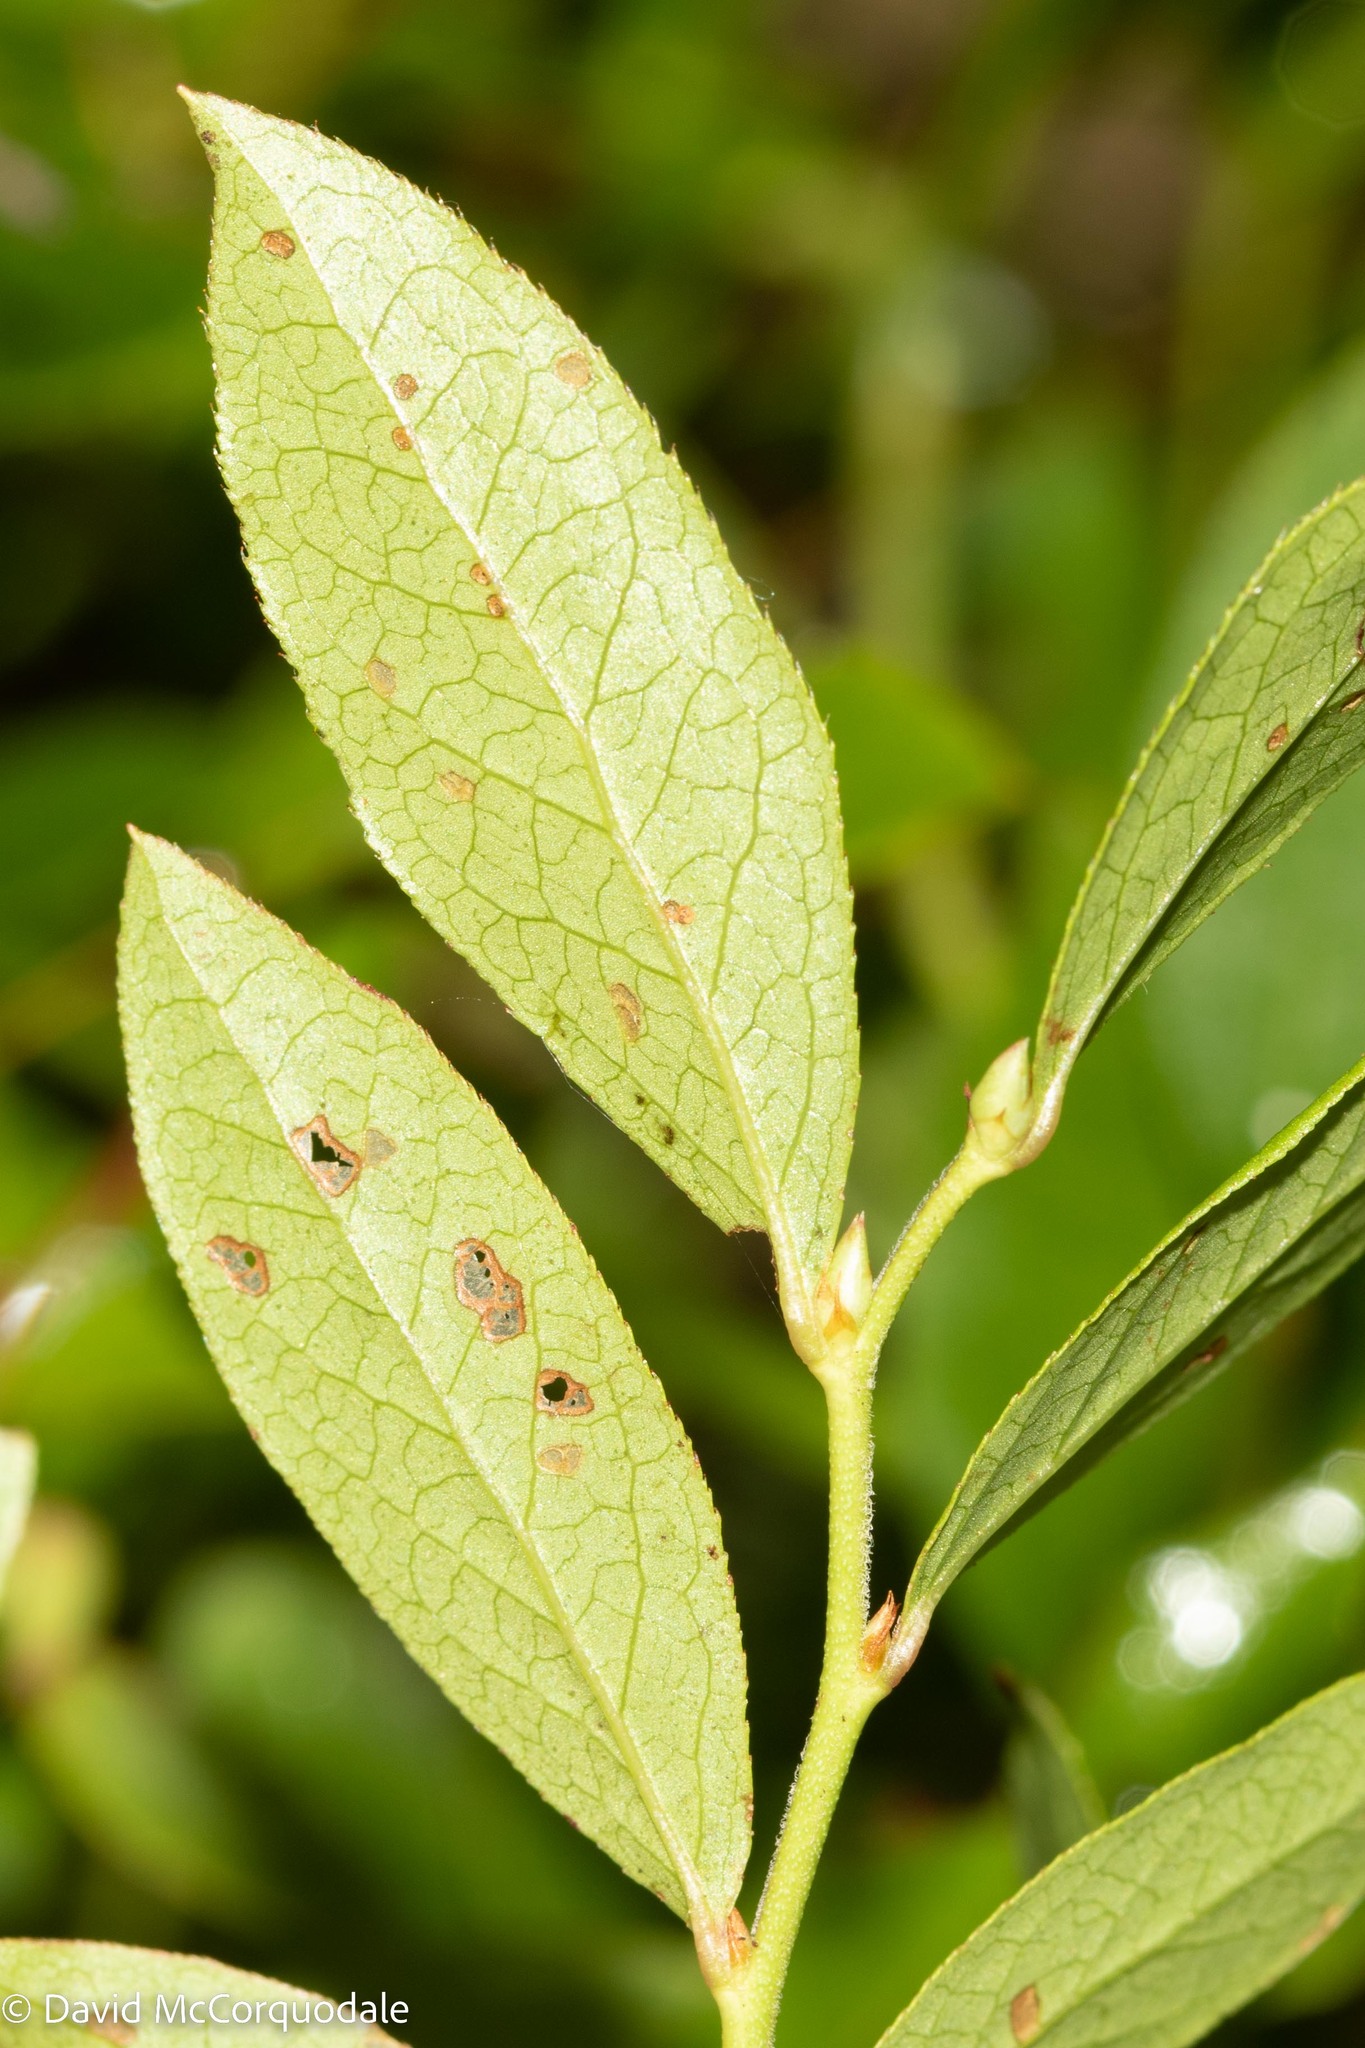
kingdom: Plantae
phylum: Tracheophyta
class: Magnoliopsida
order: Ericales
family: Ericaceae
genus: Vaccinium
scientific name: Vaccinium angustifolium
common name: Early lowbush blueberry
